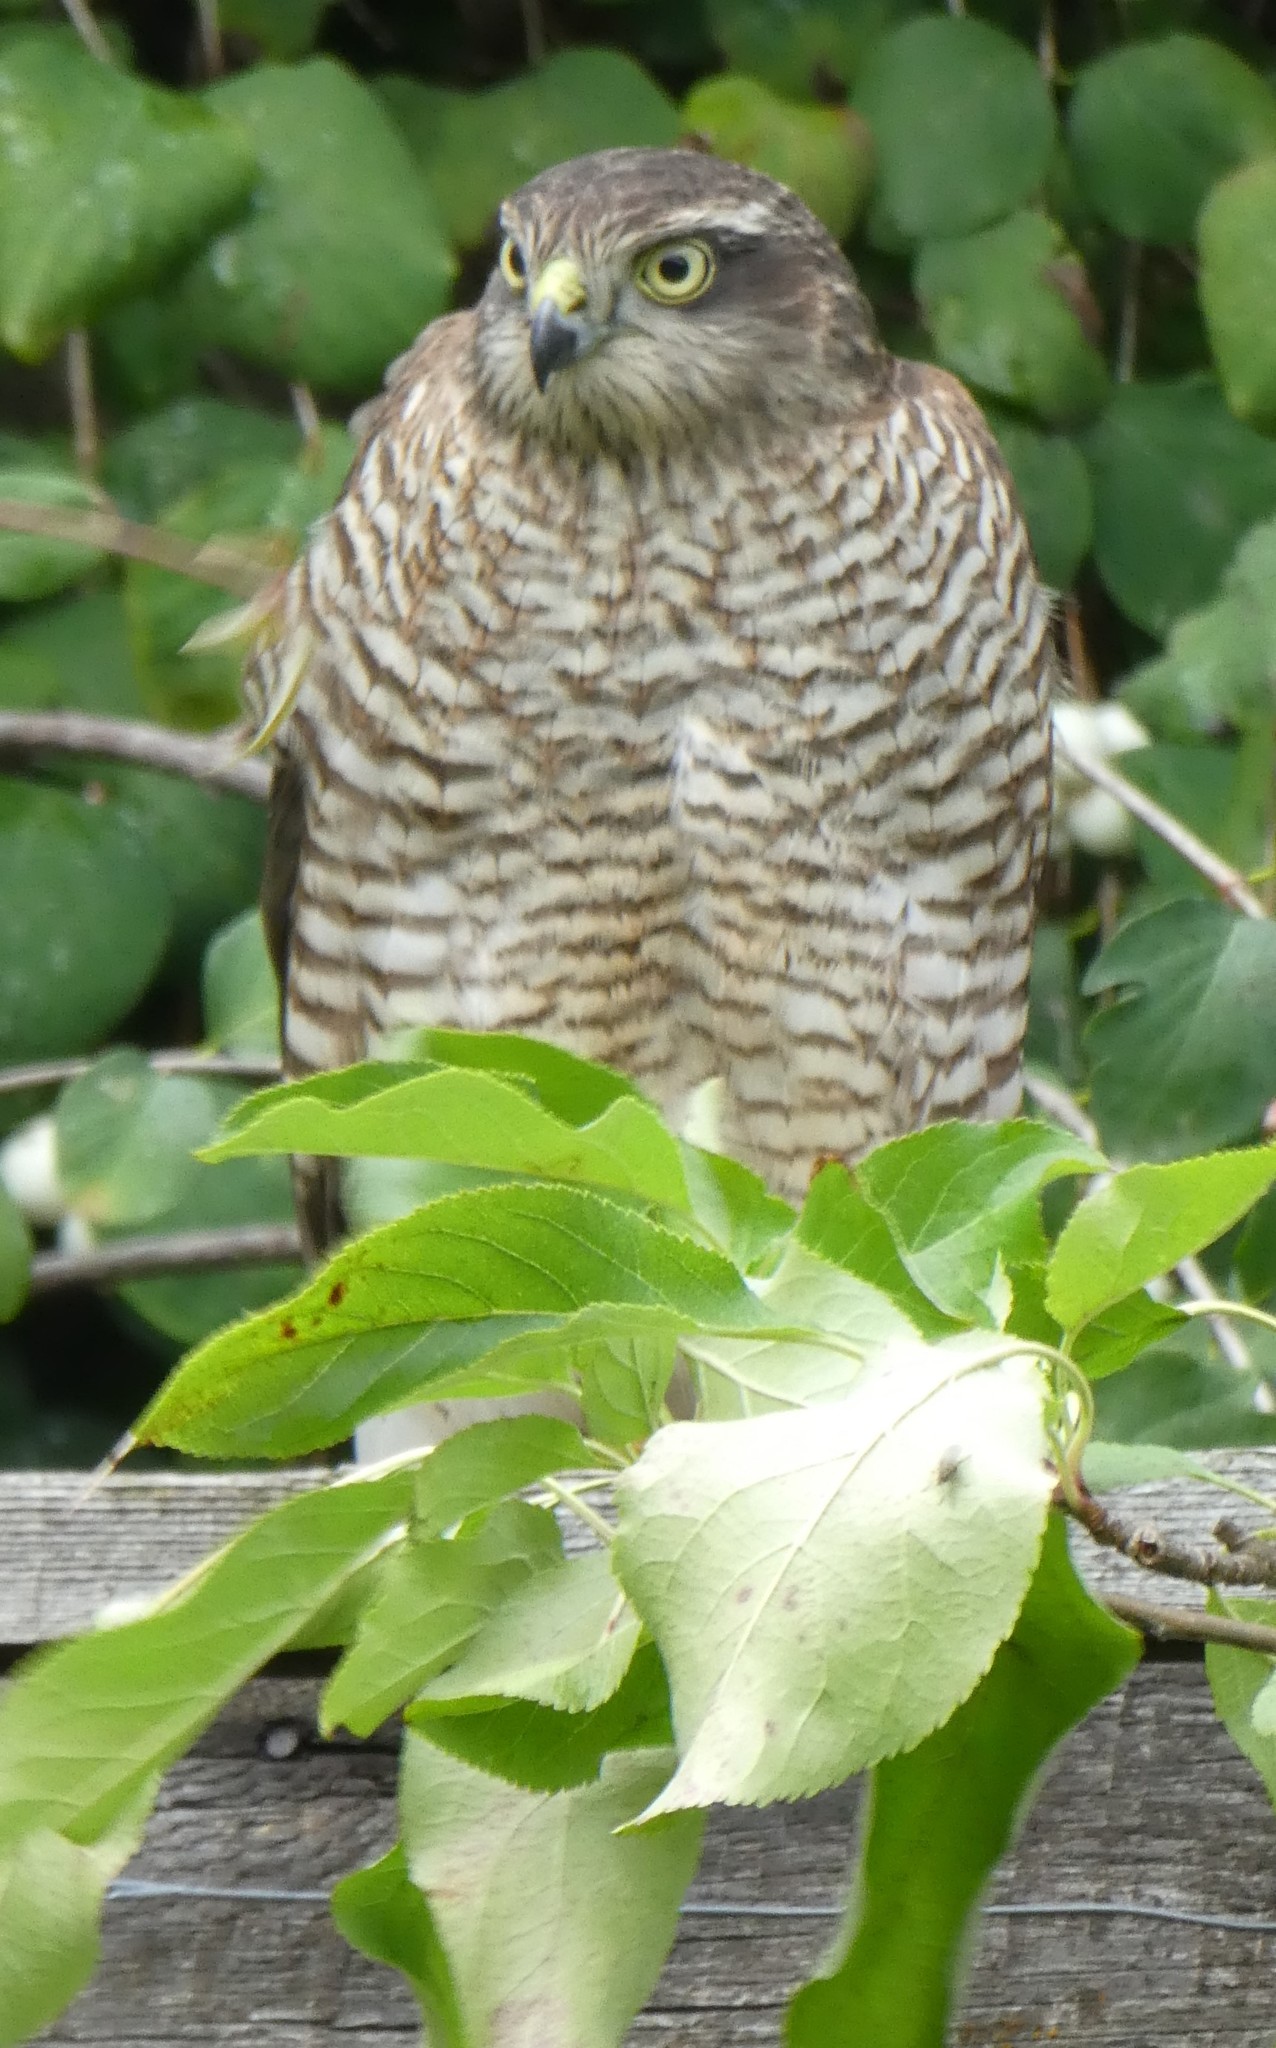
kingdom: Animalia
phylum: Chordata
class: Aves
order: Accipitriformes
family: Accipitridae
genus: Accipiter
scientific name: Accipiter nisus
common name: Eurasian sparrowhawk
